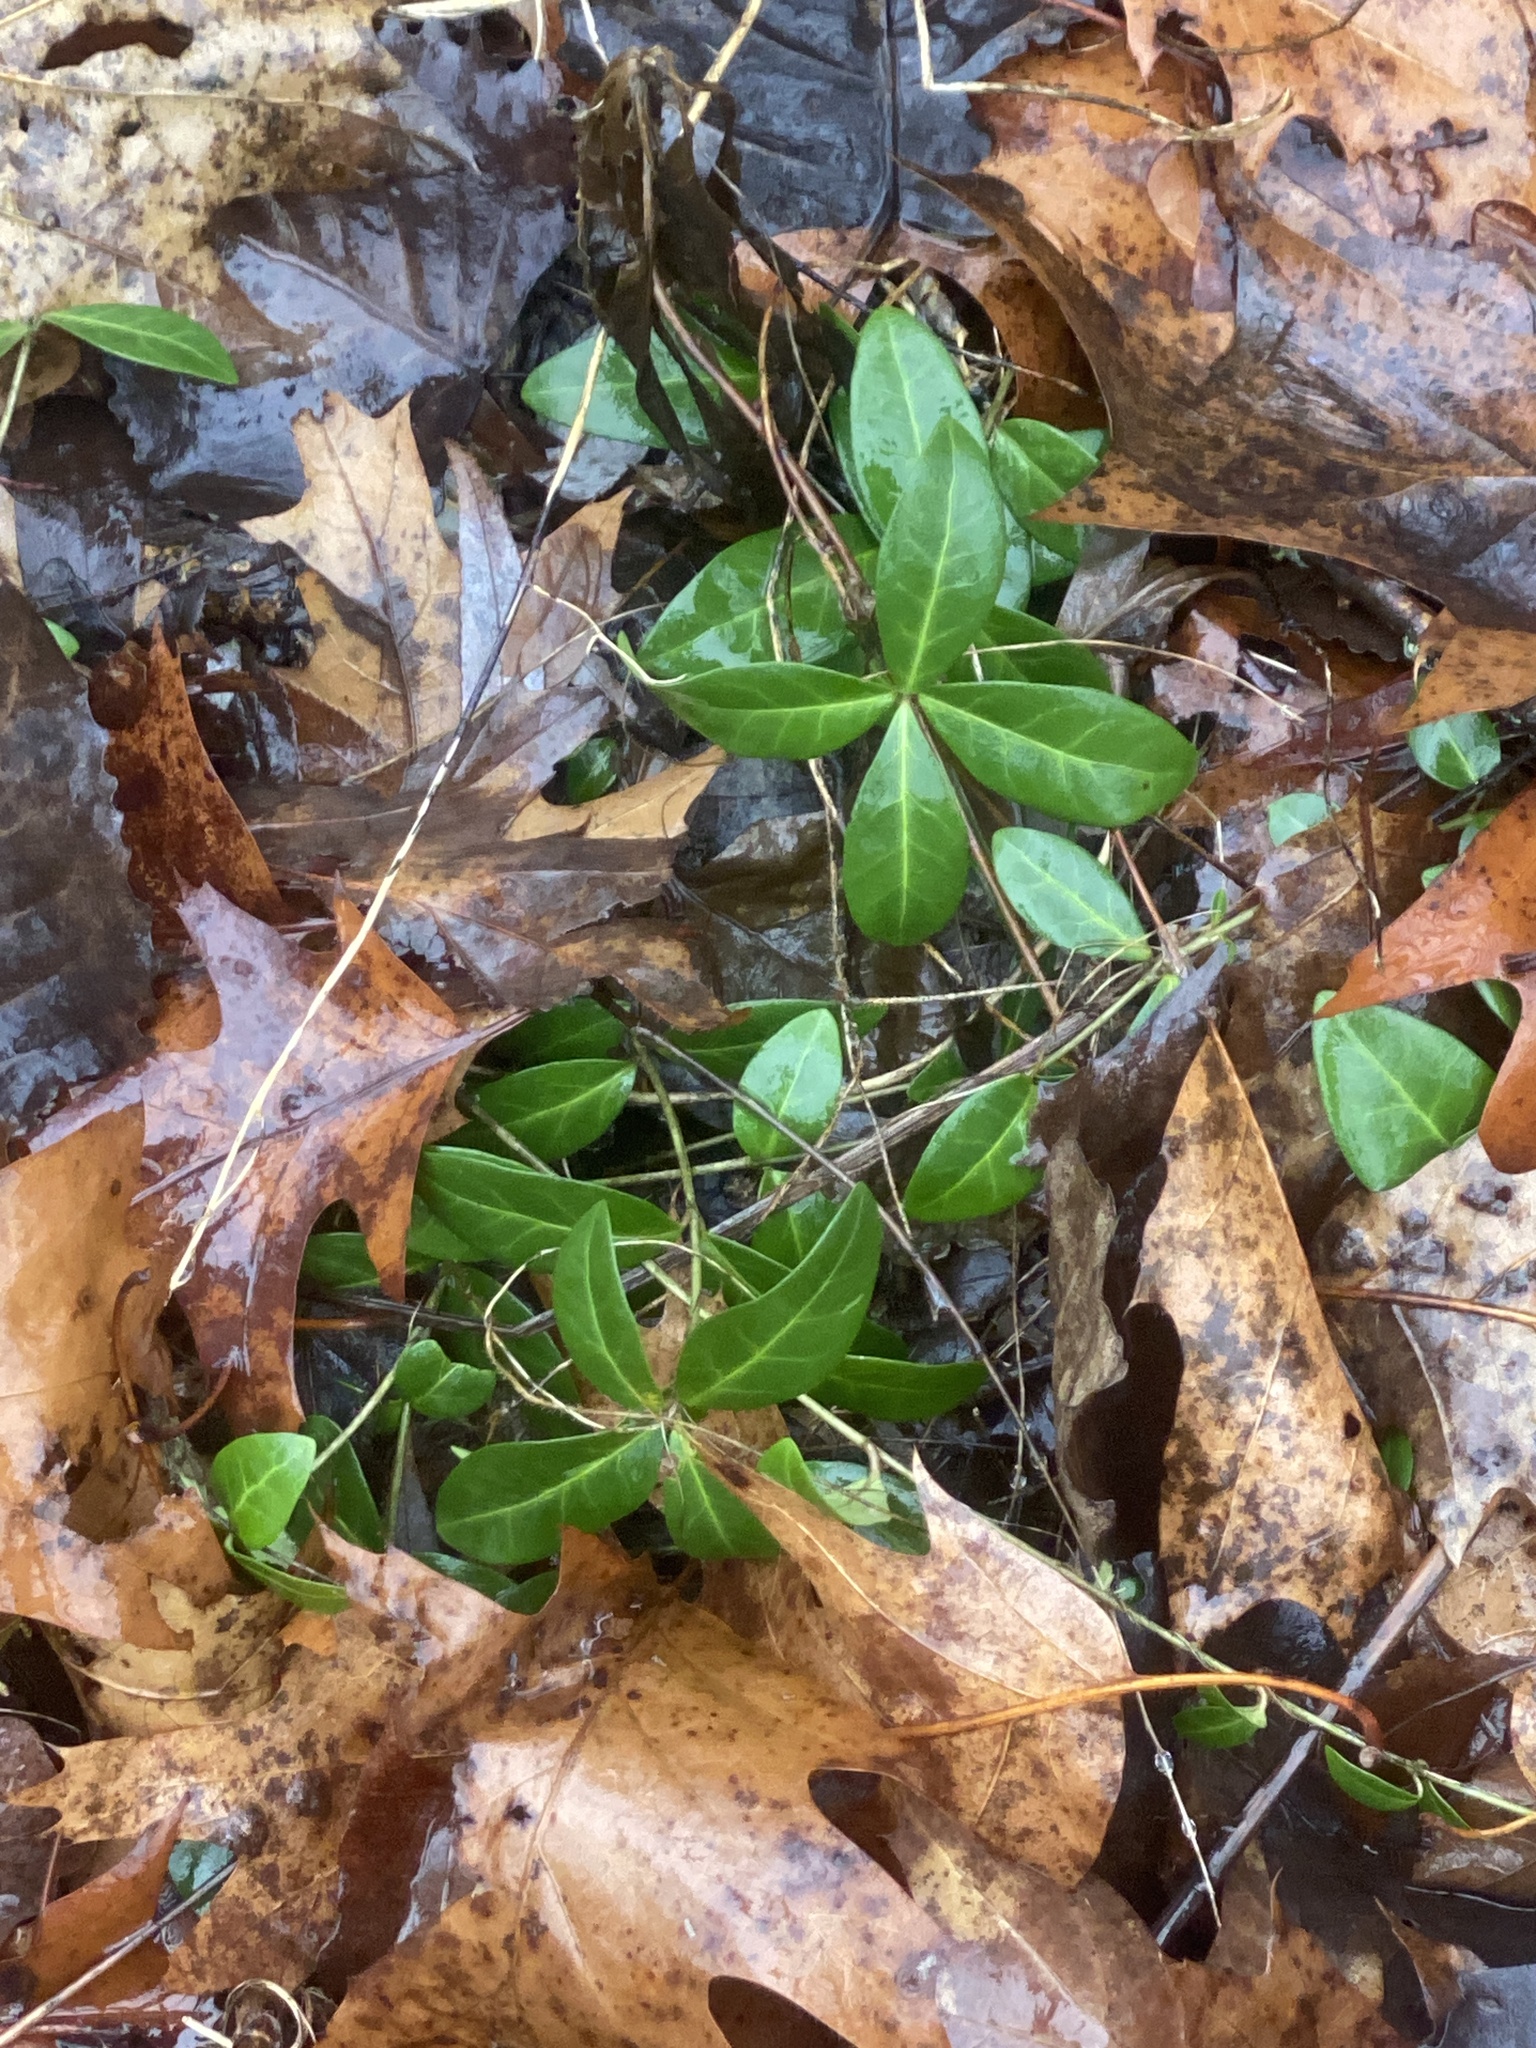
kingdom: Plantae
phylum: Tracheophyta
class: Magnoliopsida
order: Gentianales
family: Apocynaceae
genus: Vinca
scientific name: Vinca minor
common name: Lesser periwinkle
